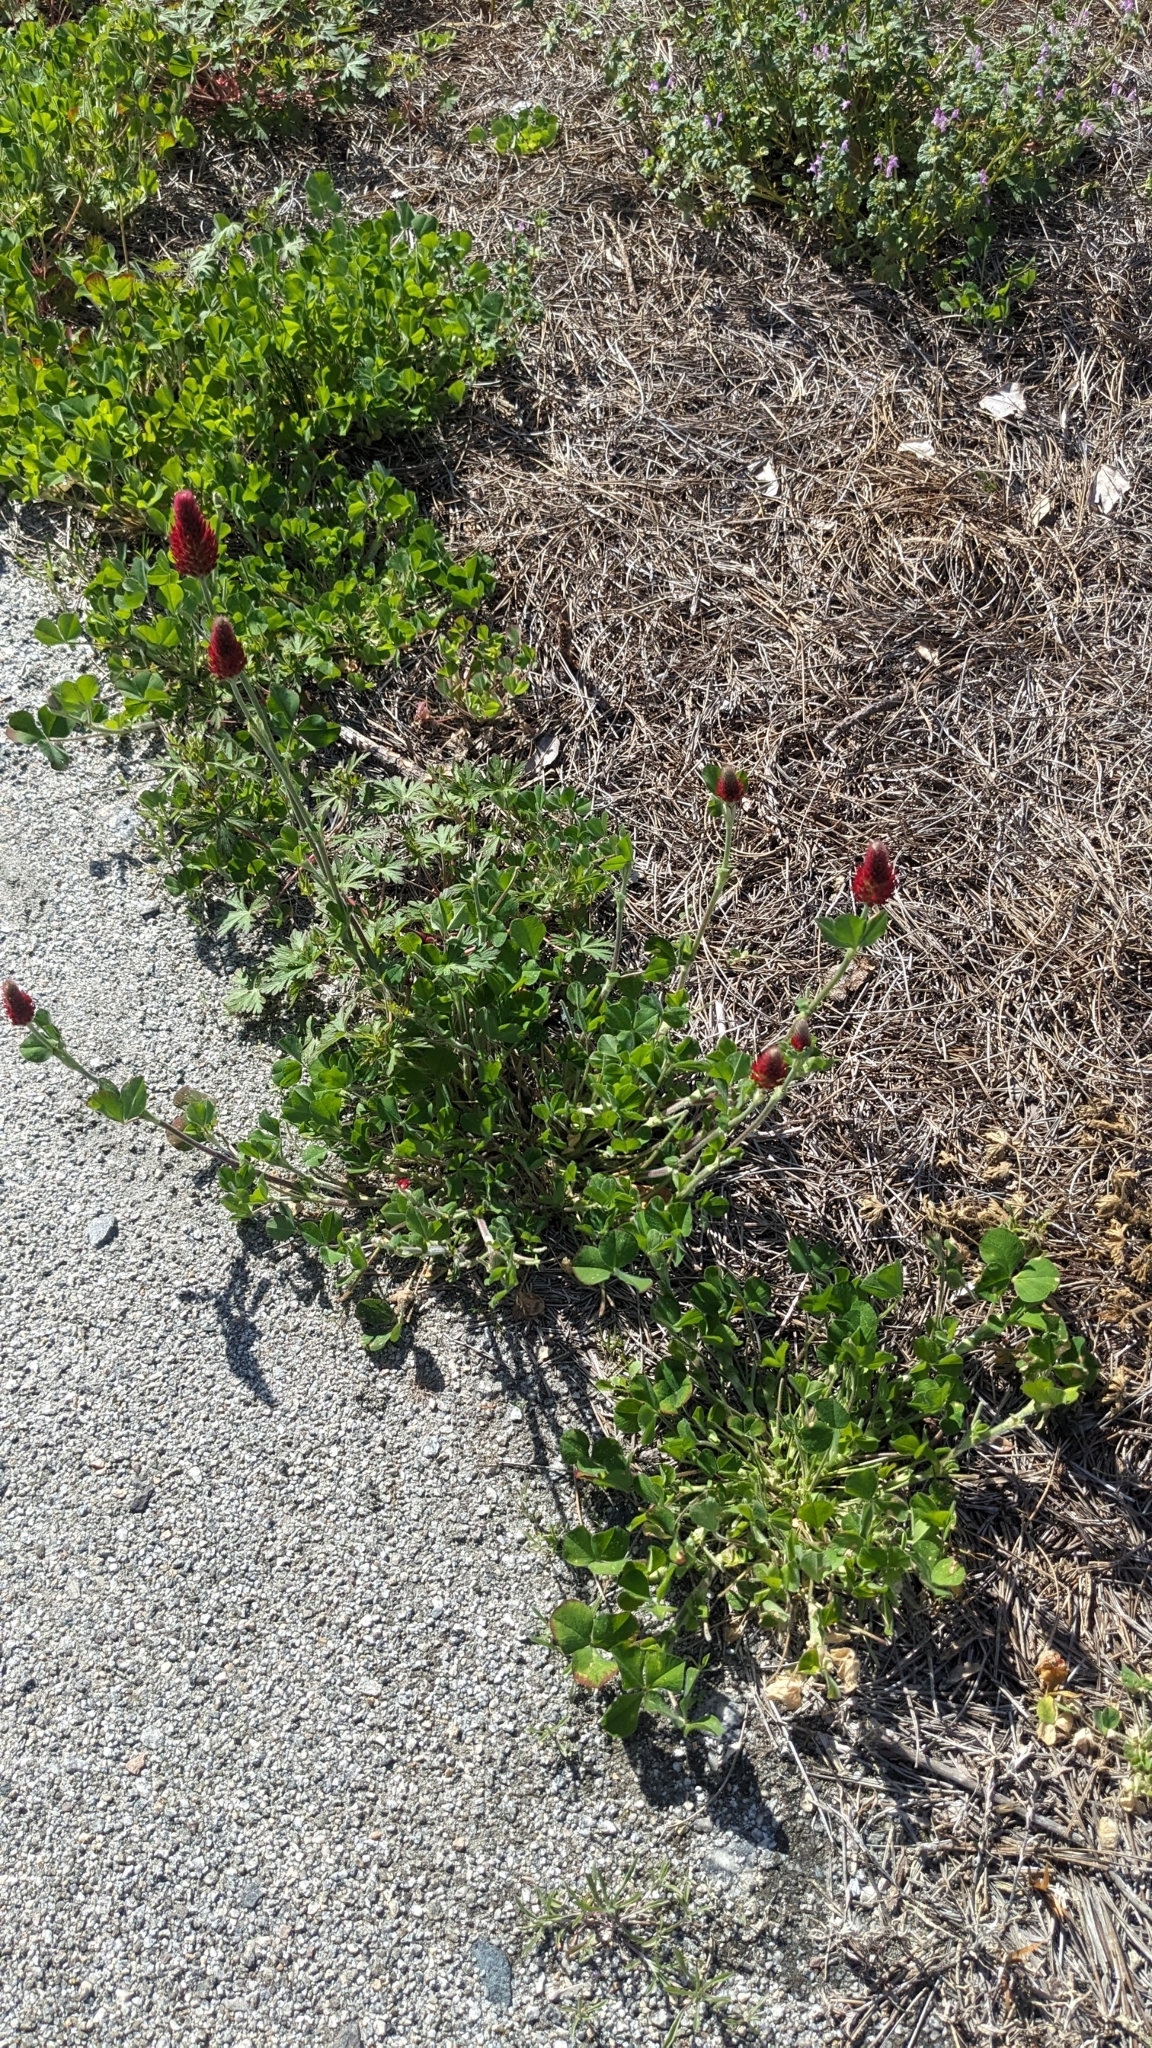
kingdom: Plantae
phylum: Tracheophyta
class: Magnoliopsida
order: Fabales
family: Fabaceae
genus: Trifolium
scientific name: Trifolium incarnatum
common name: Crimson clover
